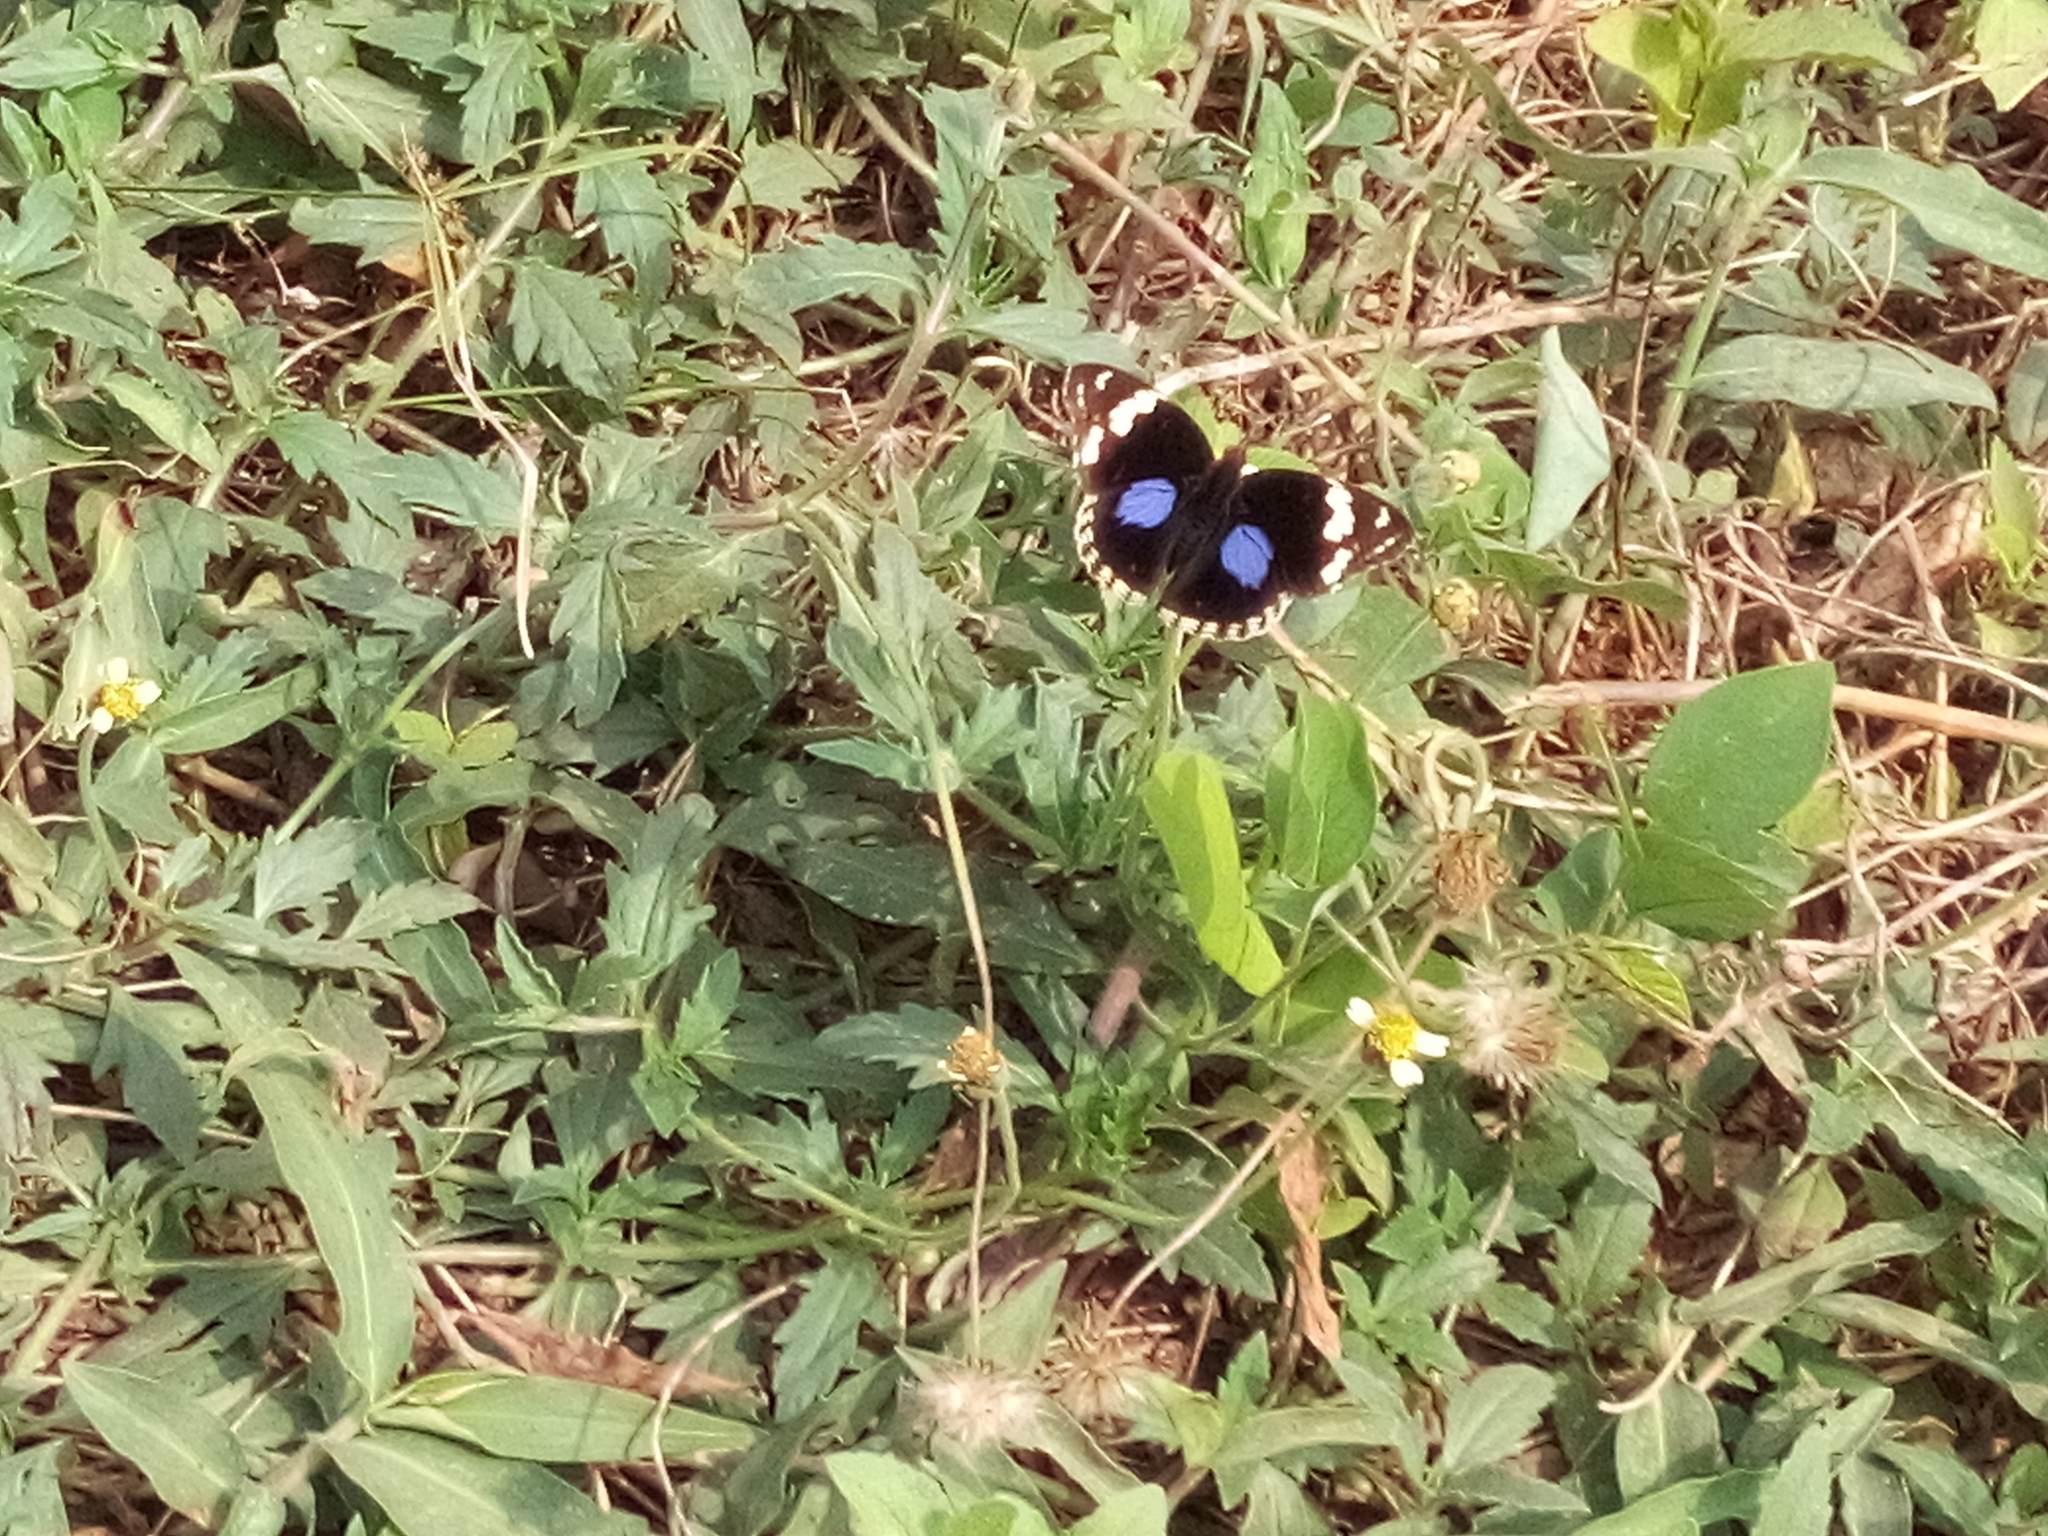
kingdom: Animalia
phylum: Arthropoda
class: Insecta
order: Lepidoptera
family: Nymphalidae
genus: Junonia
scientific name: Junonia oenone
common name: Dark blue pansy
